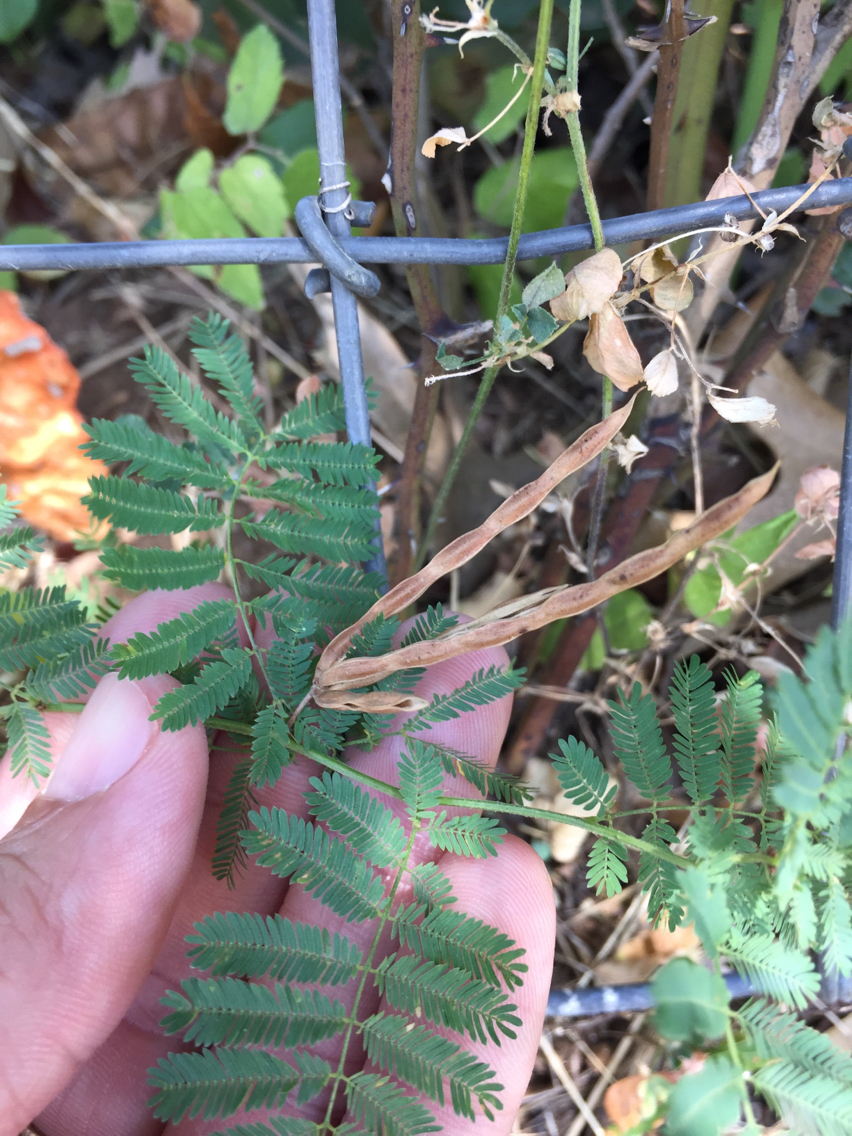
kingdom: Plantae
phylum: Tracheophyta
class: Magnoliopsida
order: Fabales
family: Fabaceae
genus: Desmanthus
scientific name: Desmanthus leptolobus
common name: Prairie-mimosa
